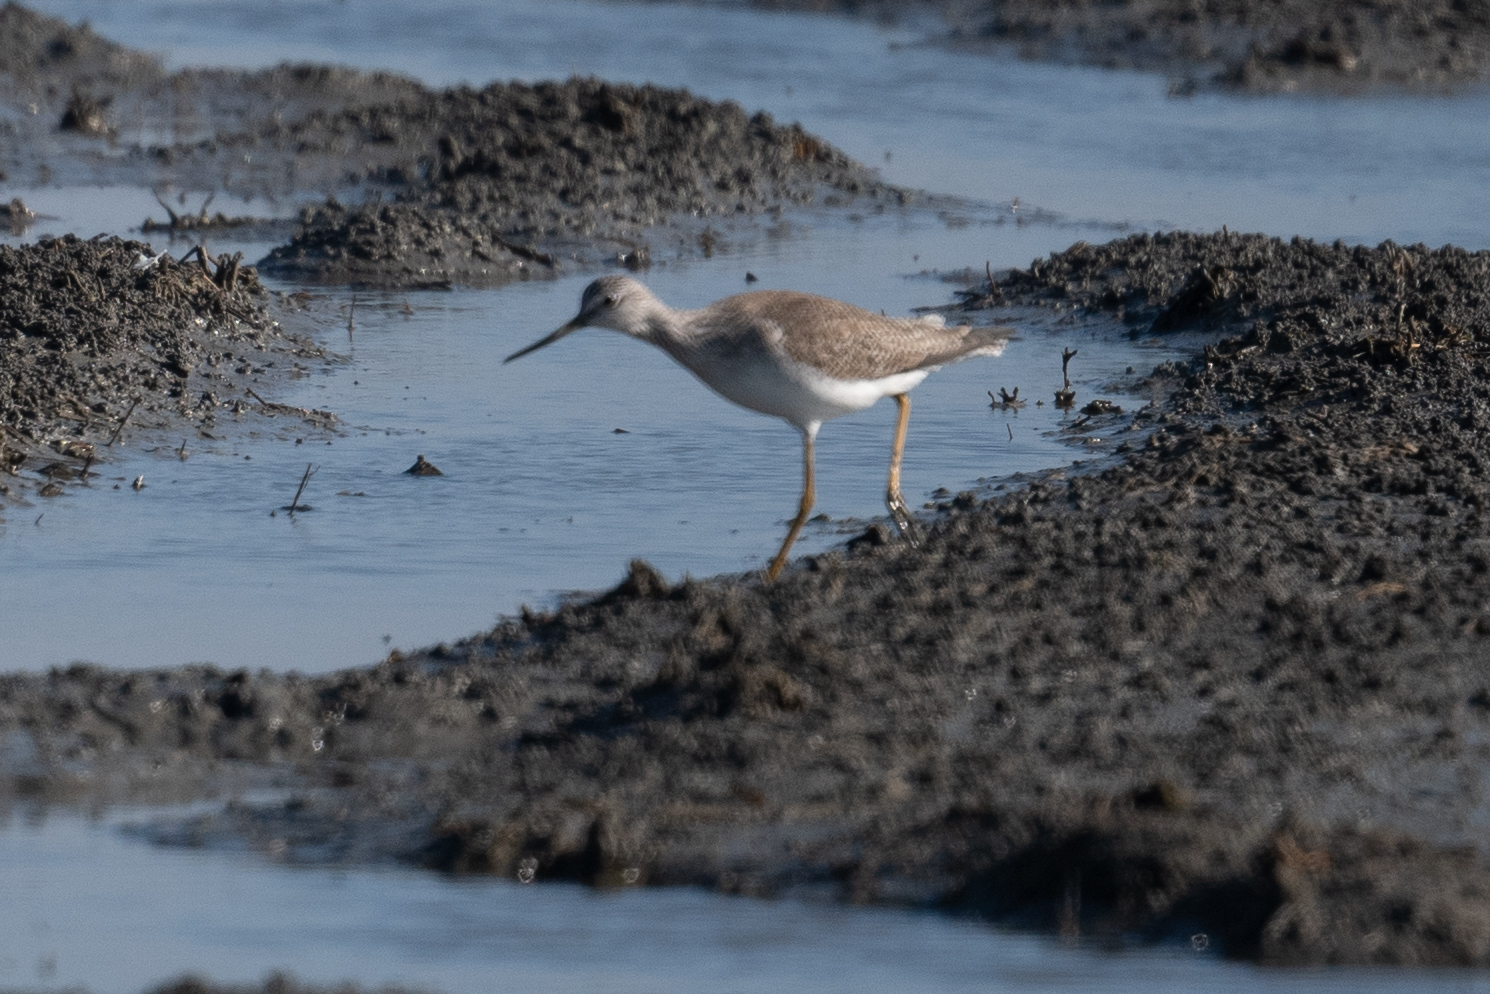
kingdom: Animalia
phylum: Chordata
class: Aves
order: Charadriiformes
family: Scolopacidae
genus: Tringa
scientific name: Tringa melanoleuca
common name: Greater yellowlegs
